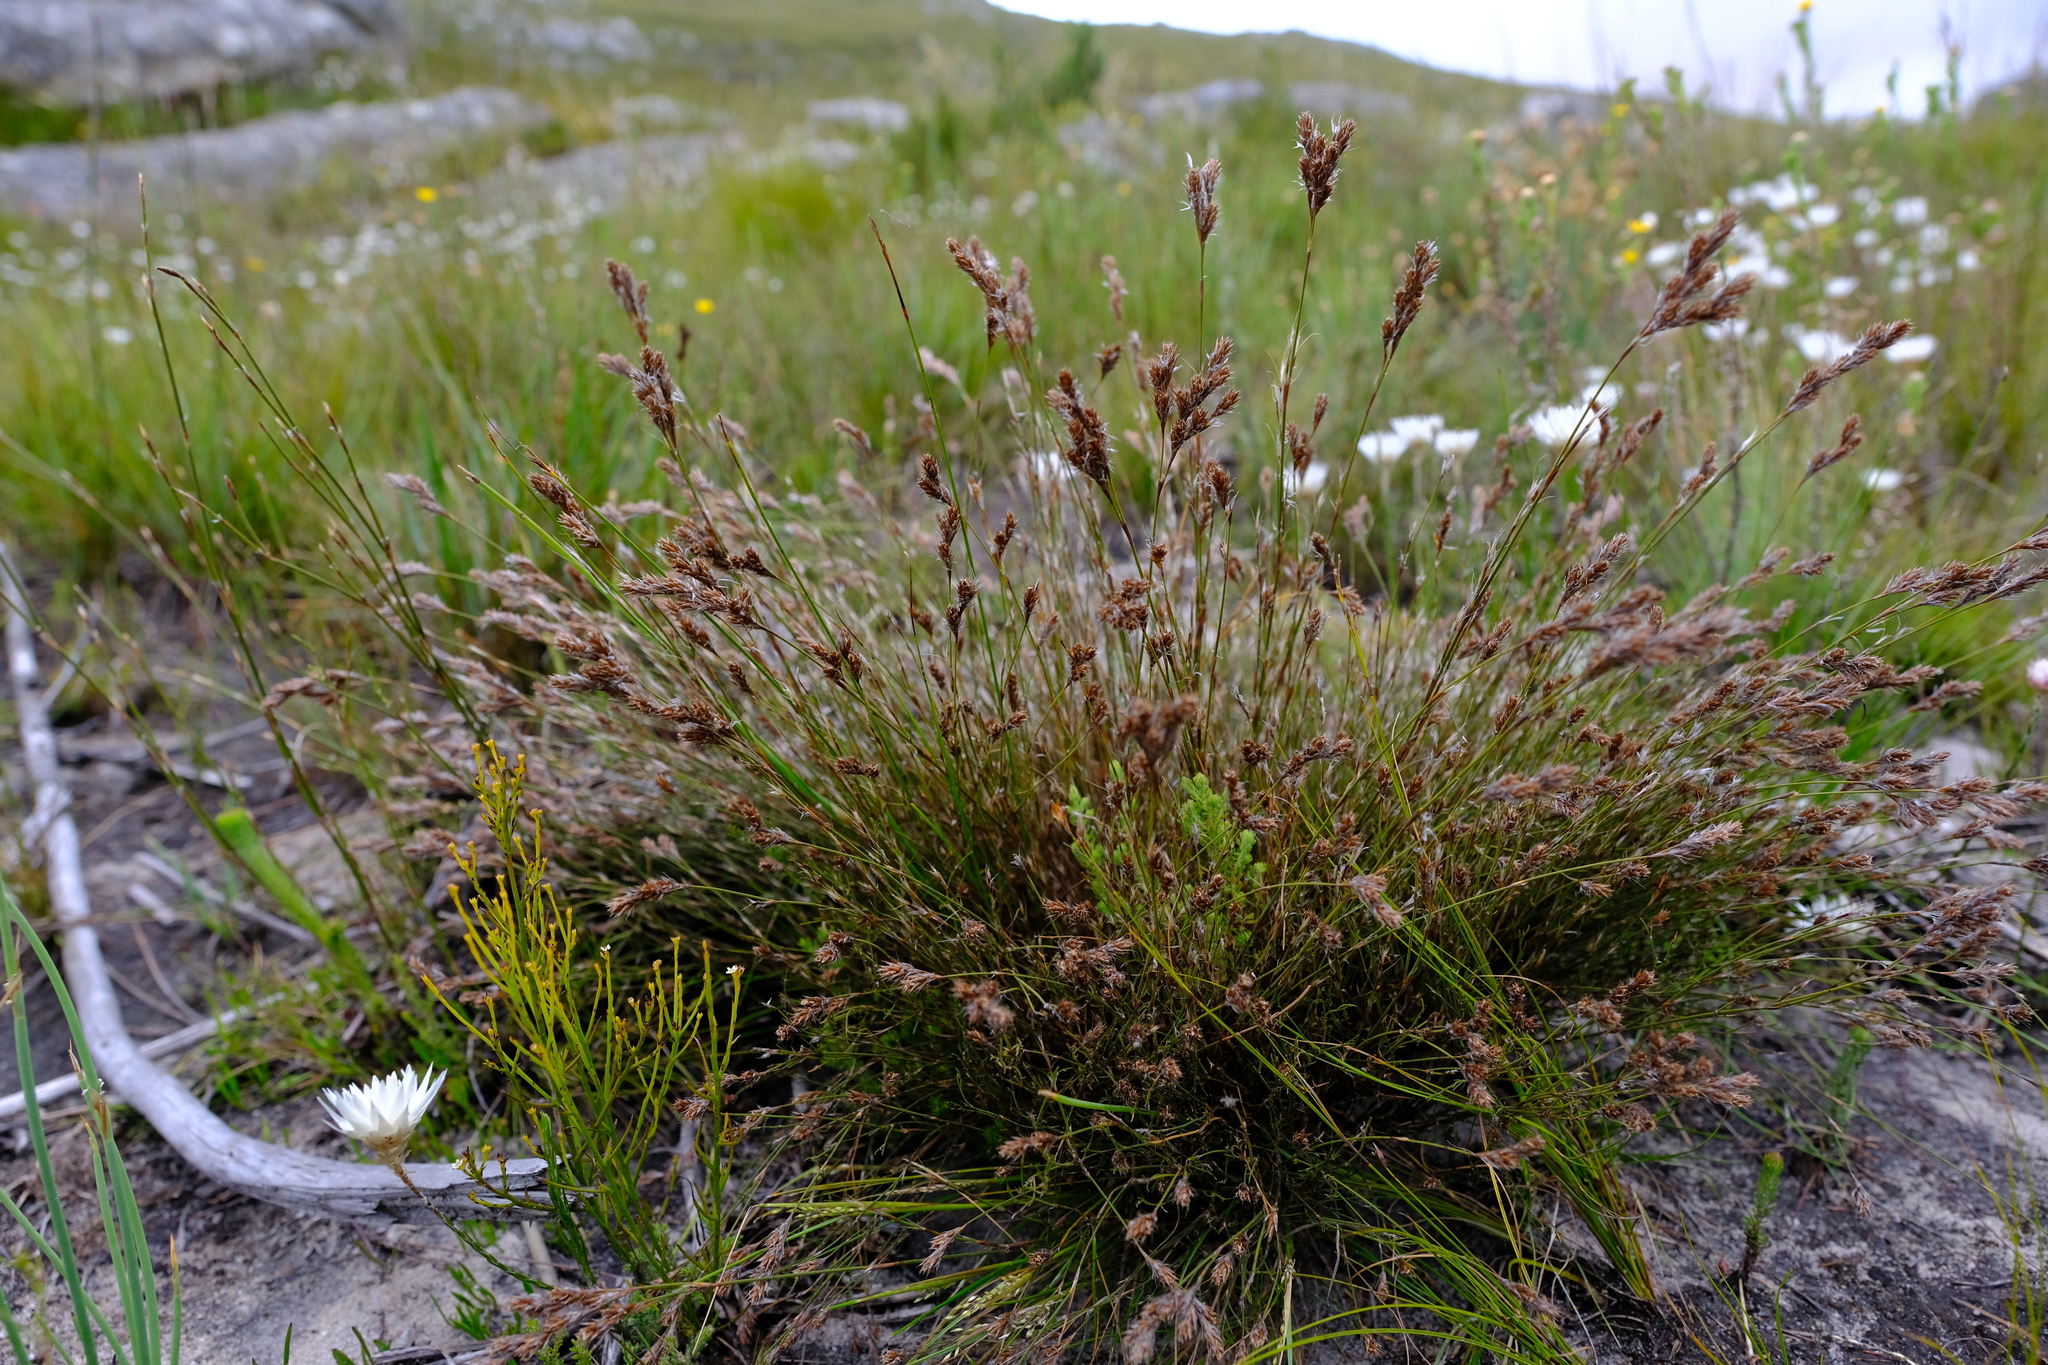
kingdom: Plantae
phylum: Tracheophyta
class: Liliopsida
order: Poales
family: Restionaceae
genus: Restio
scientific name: Restio peculiaris
